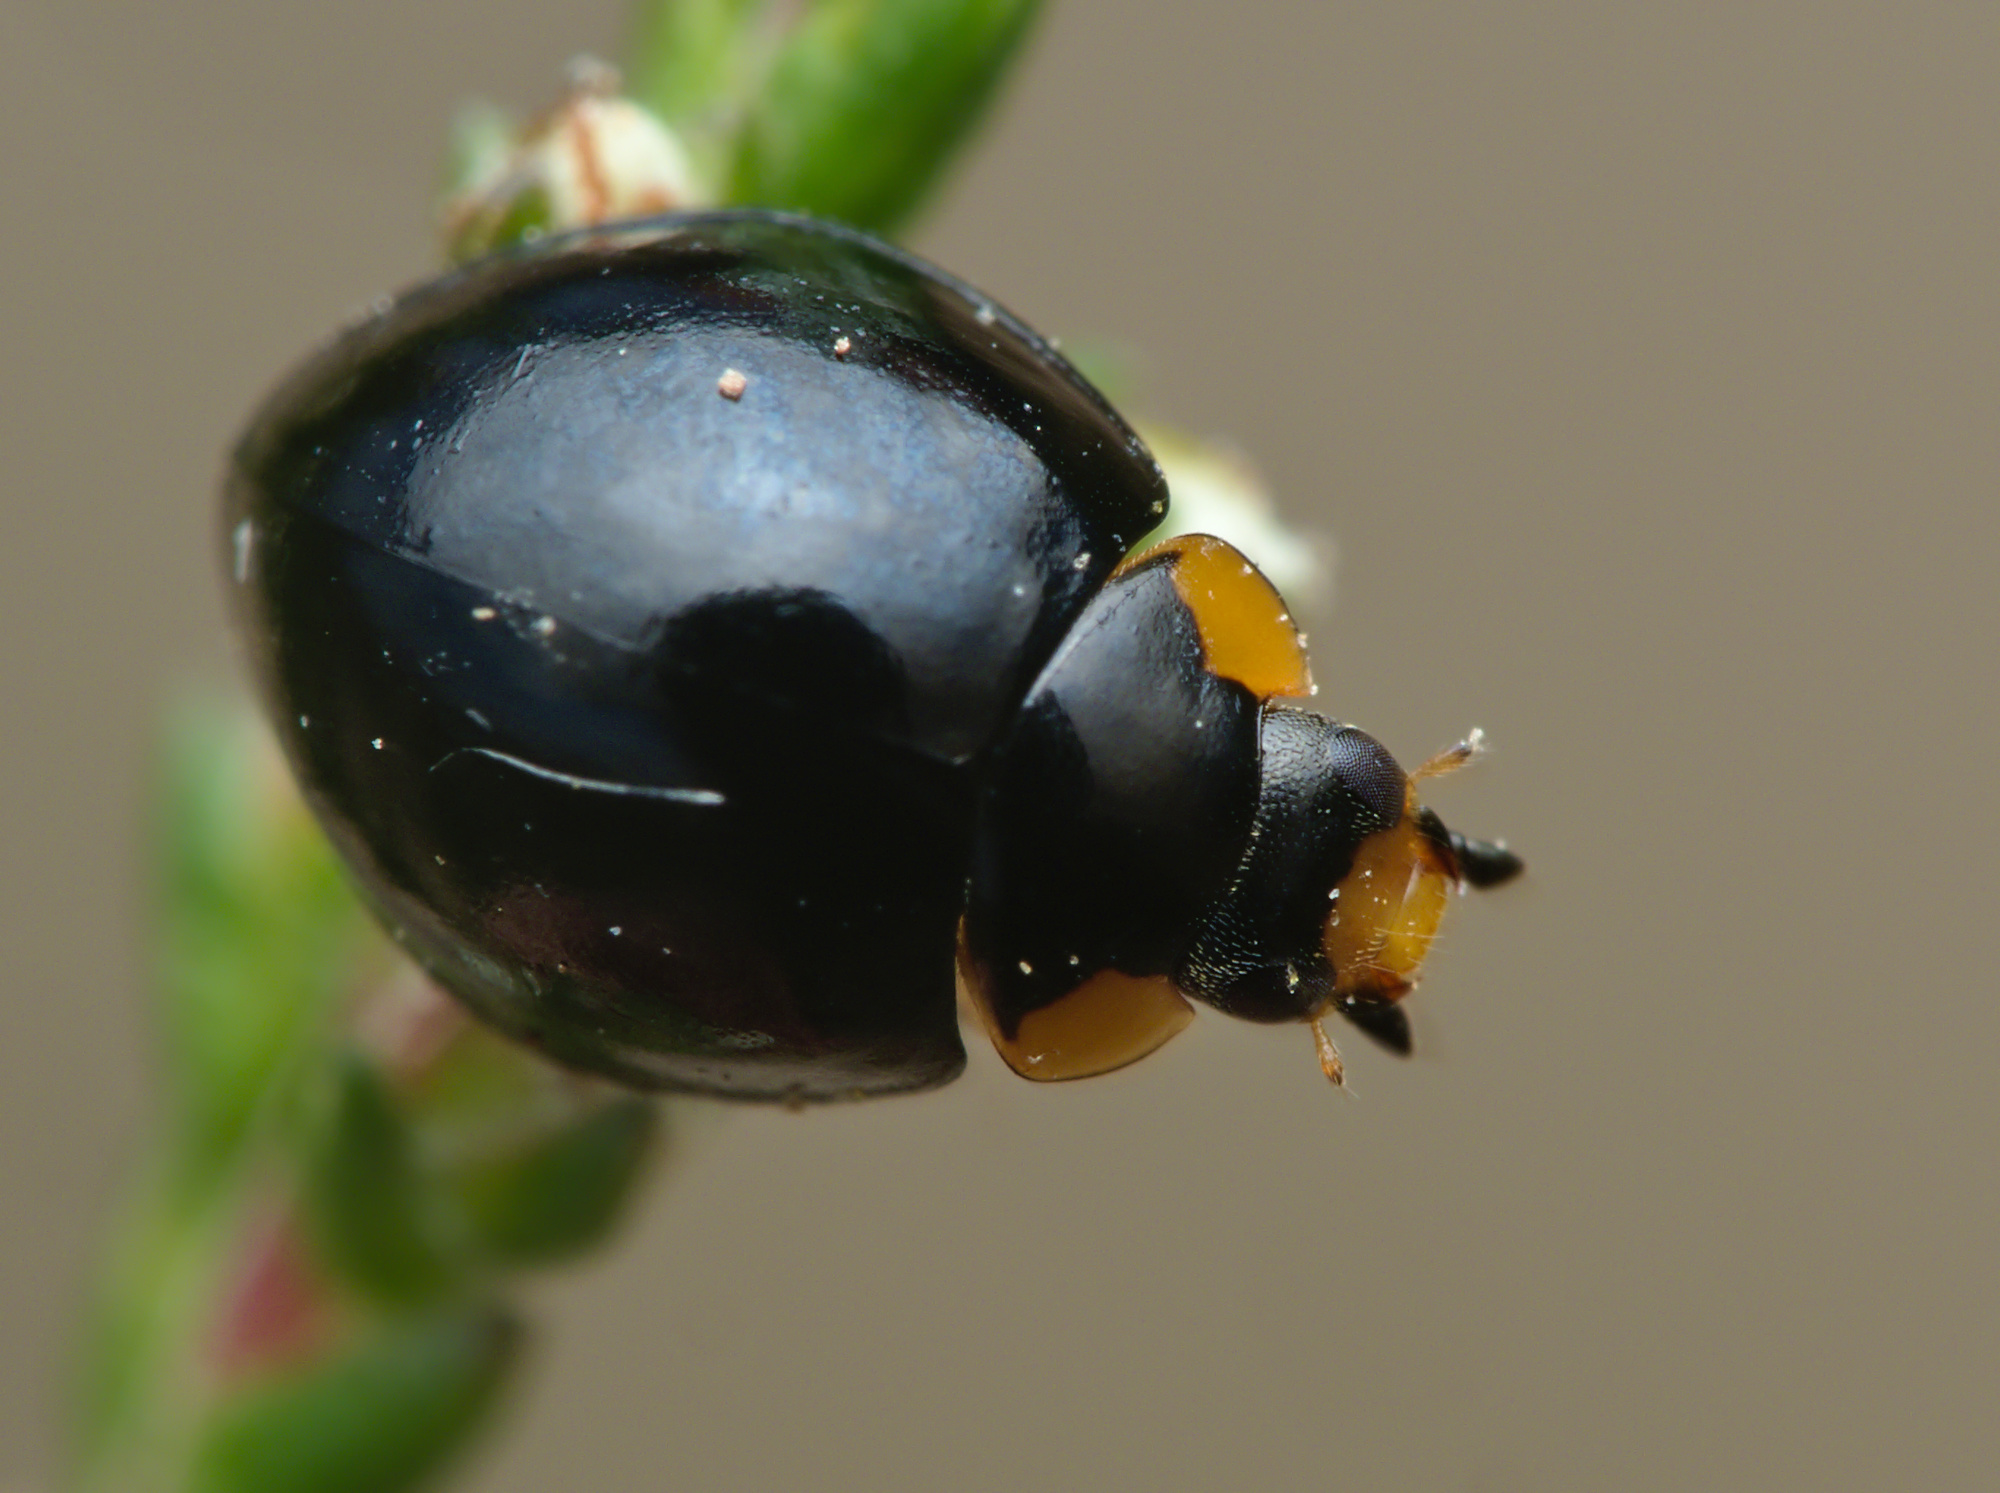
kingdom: Animalia
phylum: Arthropoda
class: Insecta
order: Coleoptera
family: Coccinellidae
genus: Parexochomus
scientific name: Parexochomus nigromaculatus
